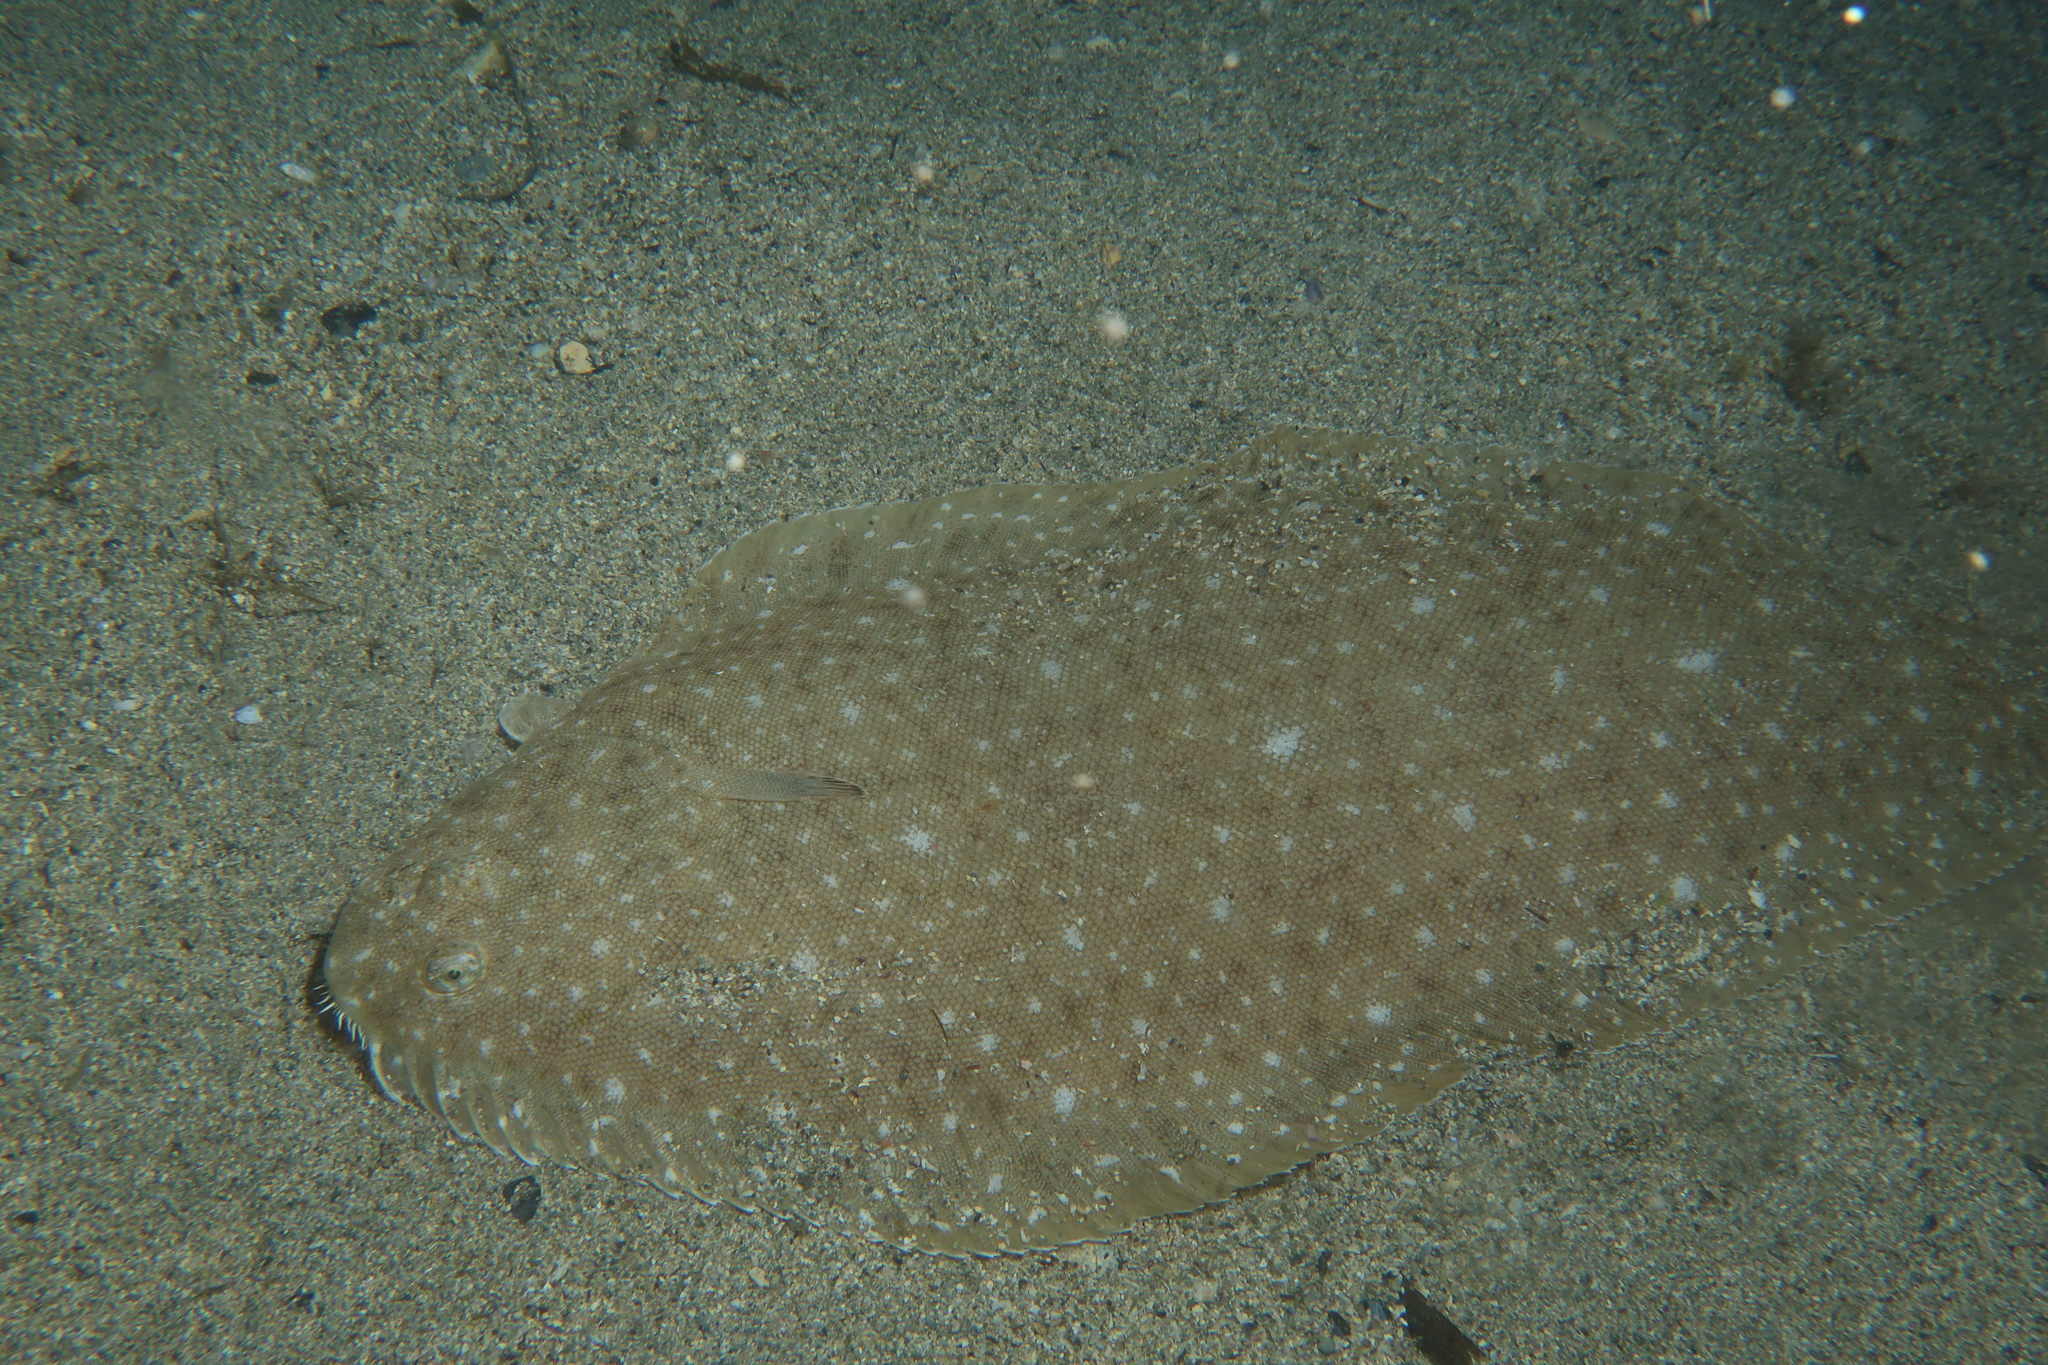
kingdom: Animalia
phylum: Chordata
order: Pleuronectiformes
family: Soleidae
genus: Solea
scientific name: Solea senegalensis
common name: Senegalese sole
